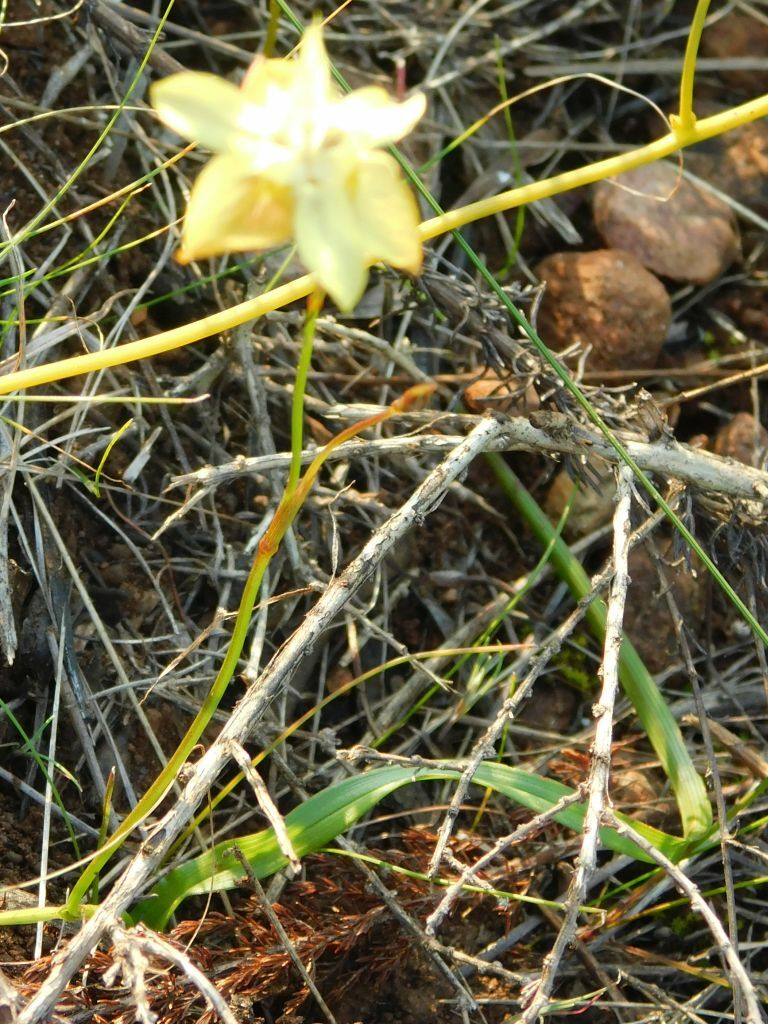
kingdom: Plantae
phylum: Tracheophyta
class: Liliopsida
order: Asparagales
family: Iridaceae
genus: Moraea
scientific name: Moraea gawleri
